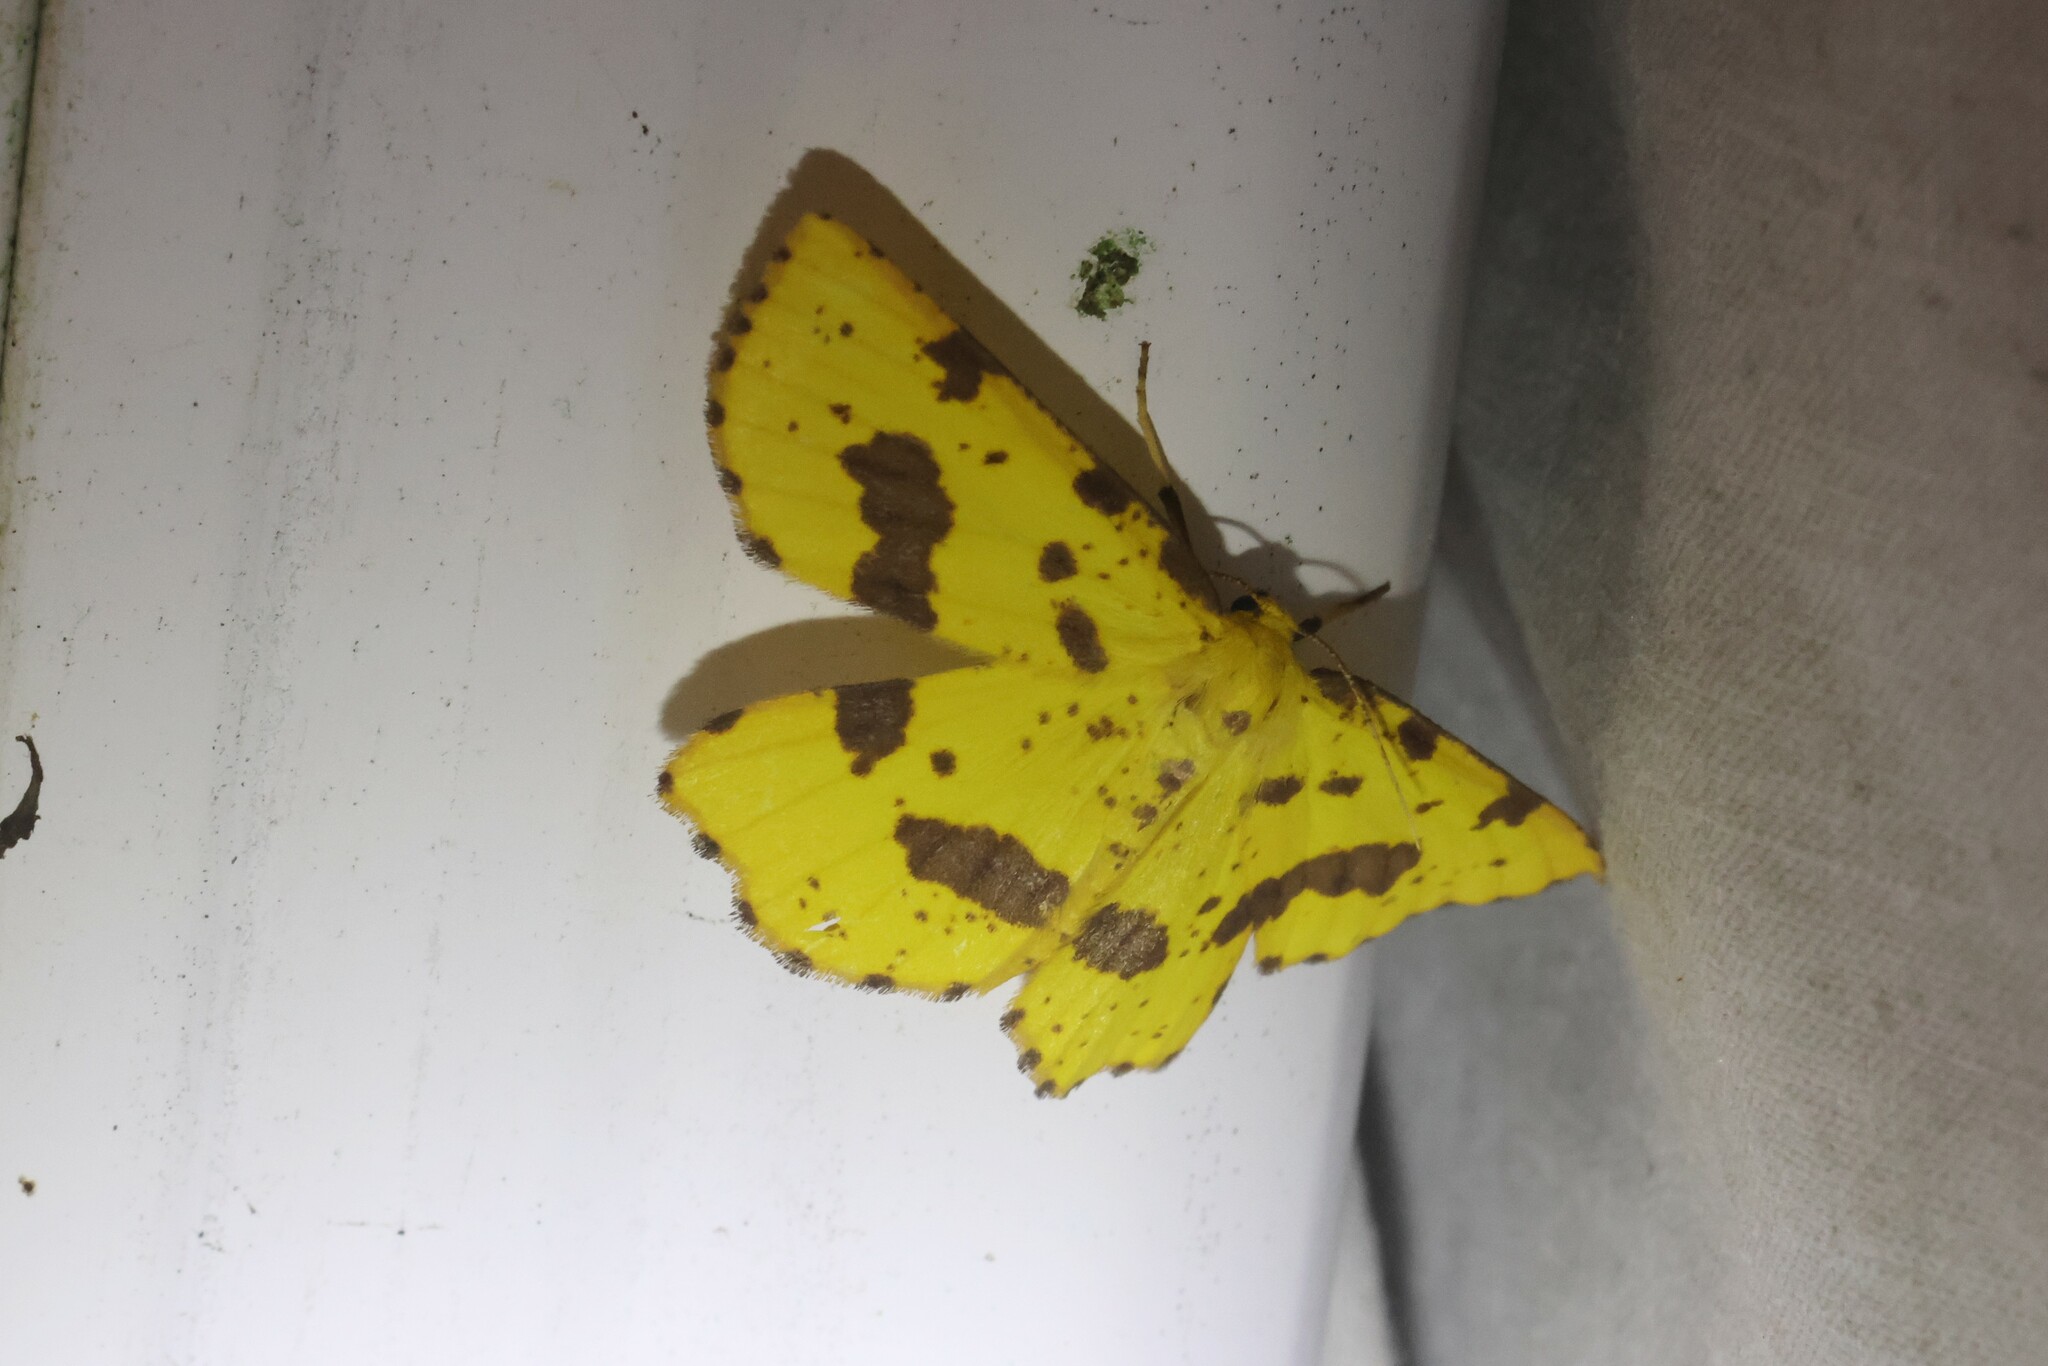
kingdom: Animalia
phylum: Arthropoda
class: Insecta
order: Lepidoptera
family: Geometridae
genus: Xanthotype
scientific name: Xanthotype
